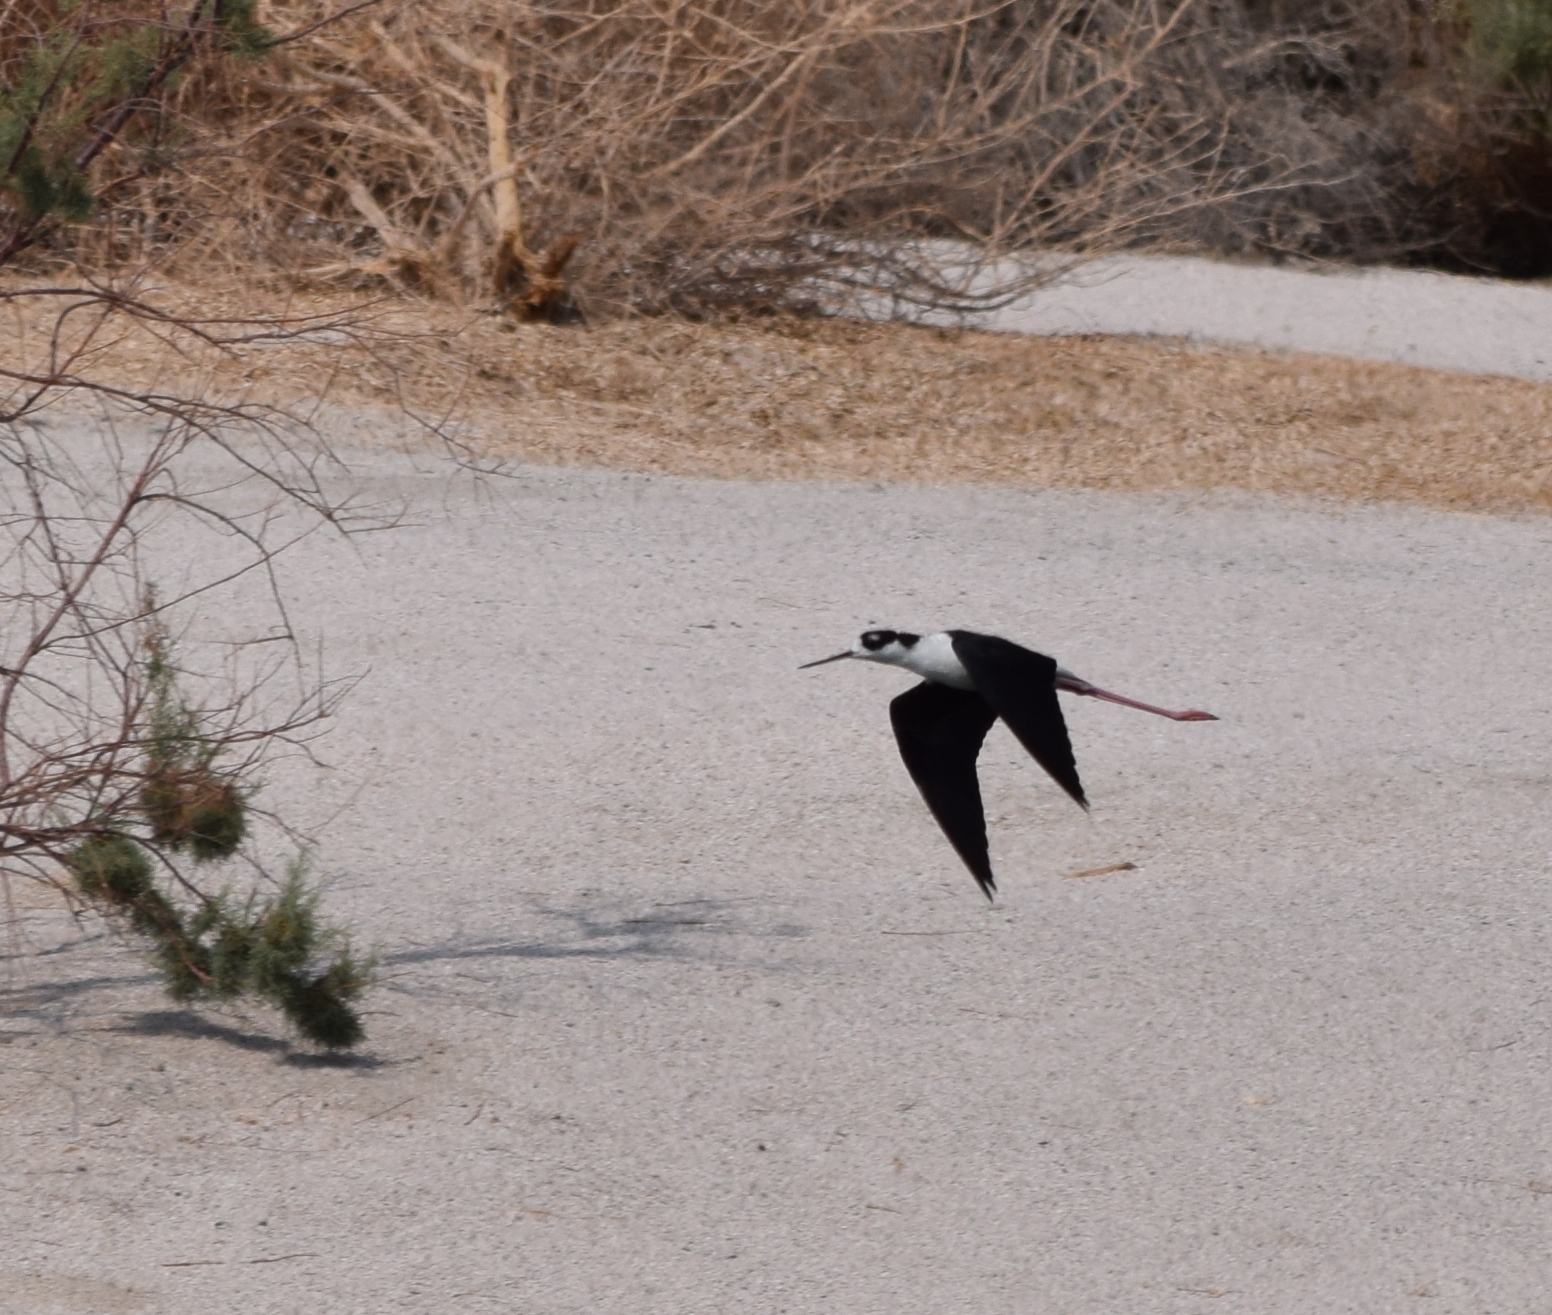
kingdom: Animalia
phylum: Chordata
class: Aves
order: Charadriiformes
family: Recurvirostridae
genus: Himantopus
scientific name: Himantopus mexicanus
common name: Black-necked stilt
